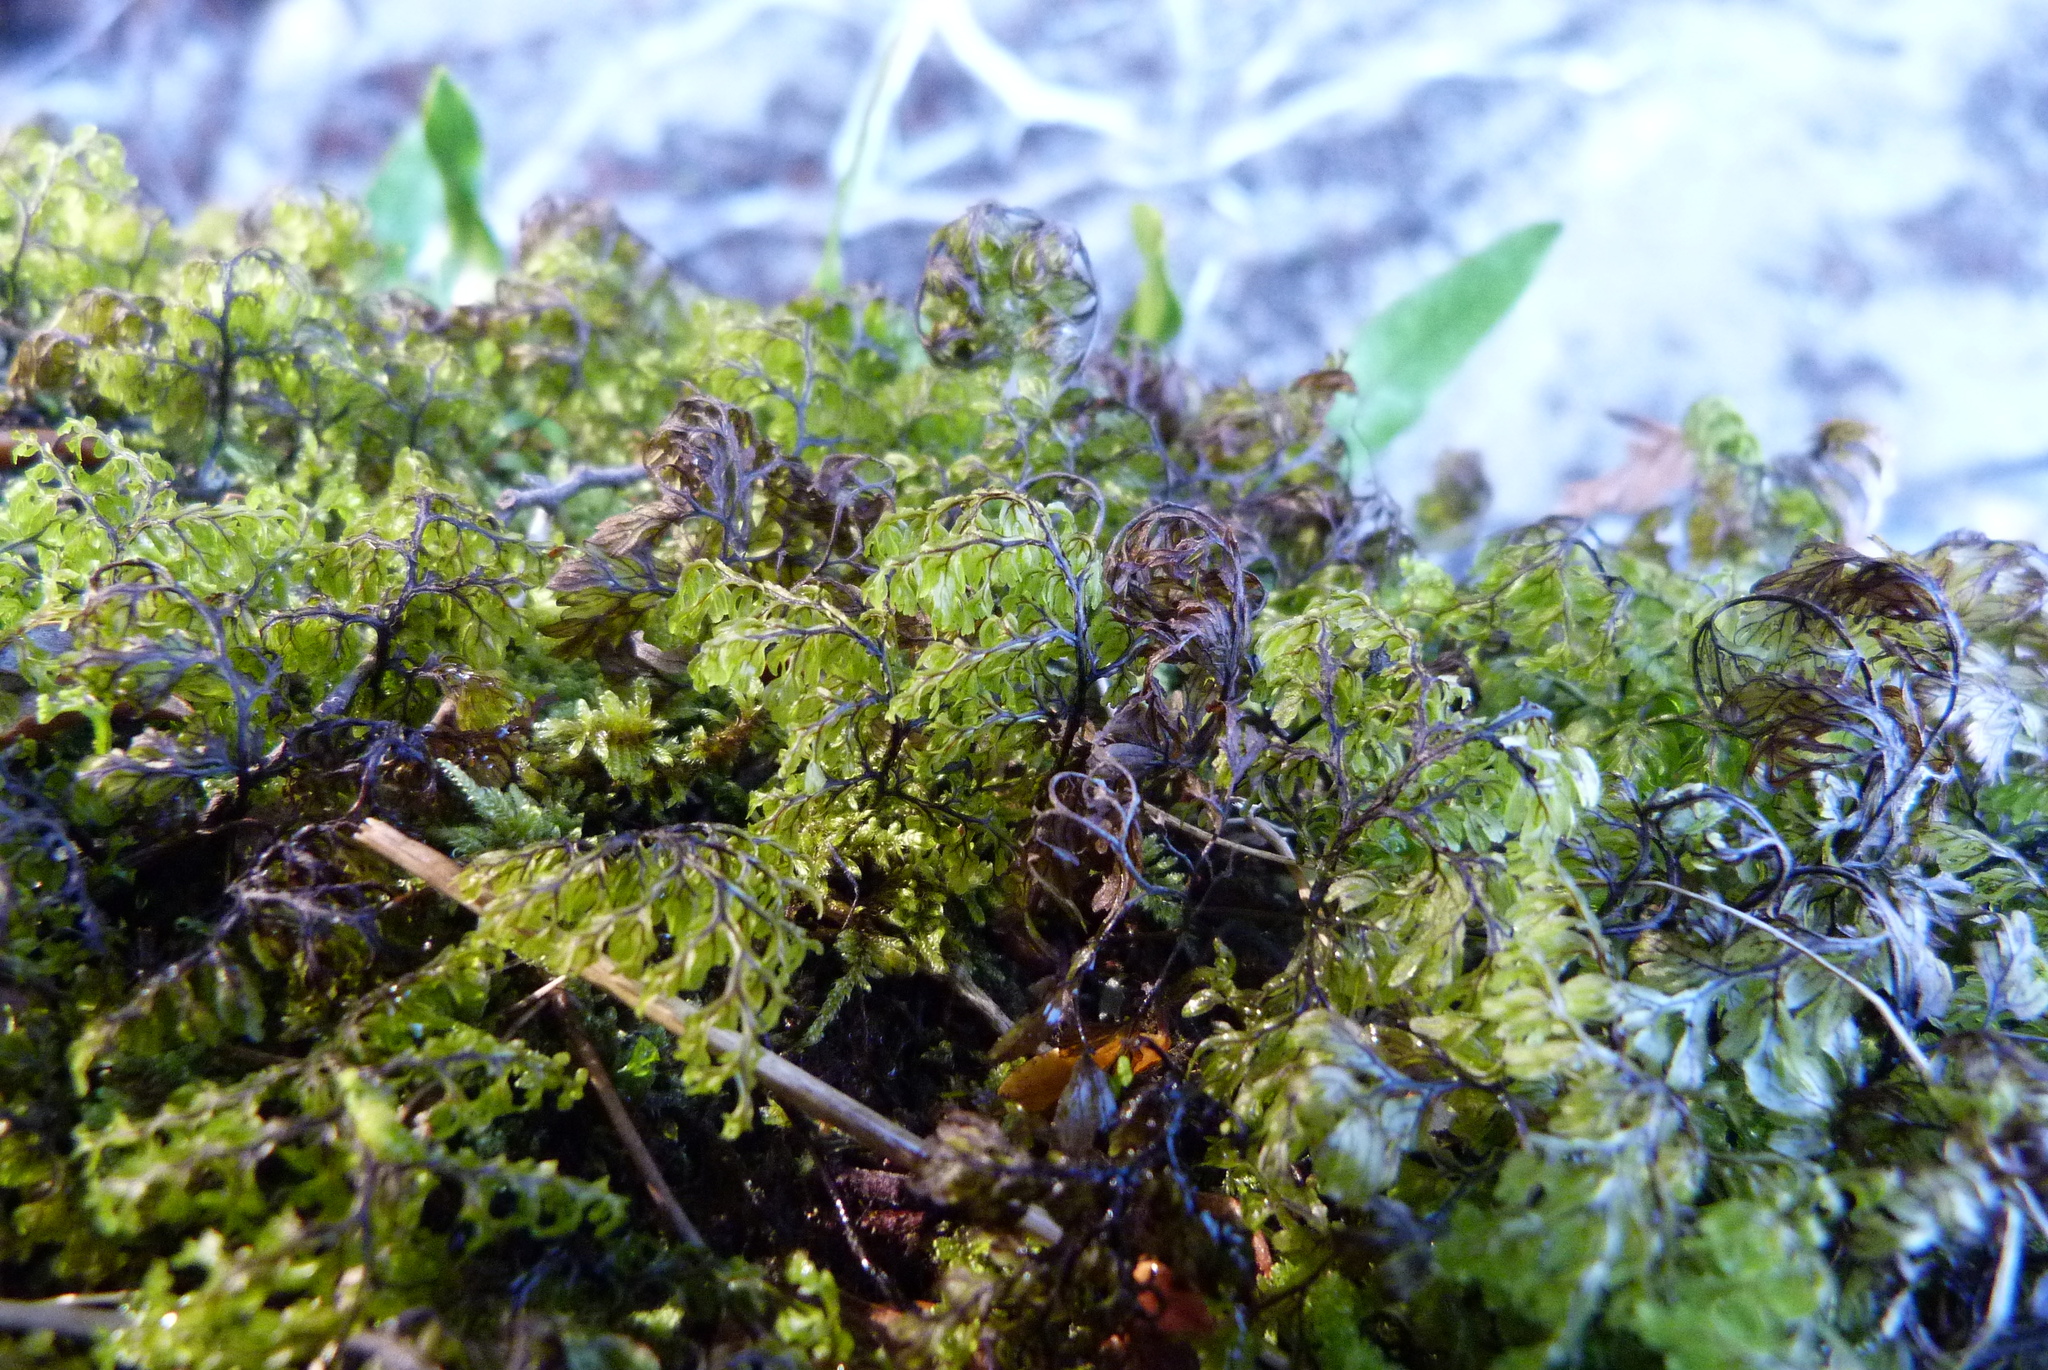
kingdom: Plantae
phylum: Tracheophyta
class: Polypodiopsida
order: Hymenophyllales
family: Hymenophyllaceae
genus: Hymenophyllum
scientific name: Hymenophyllum sanguinolentum
